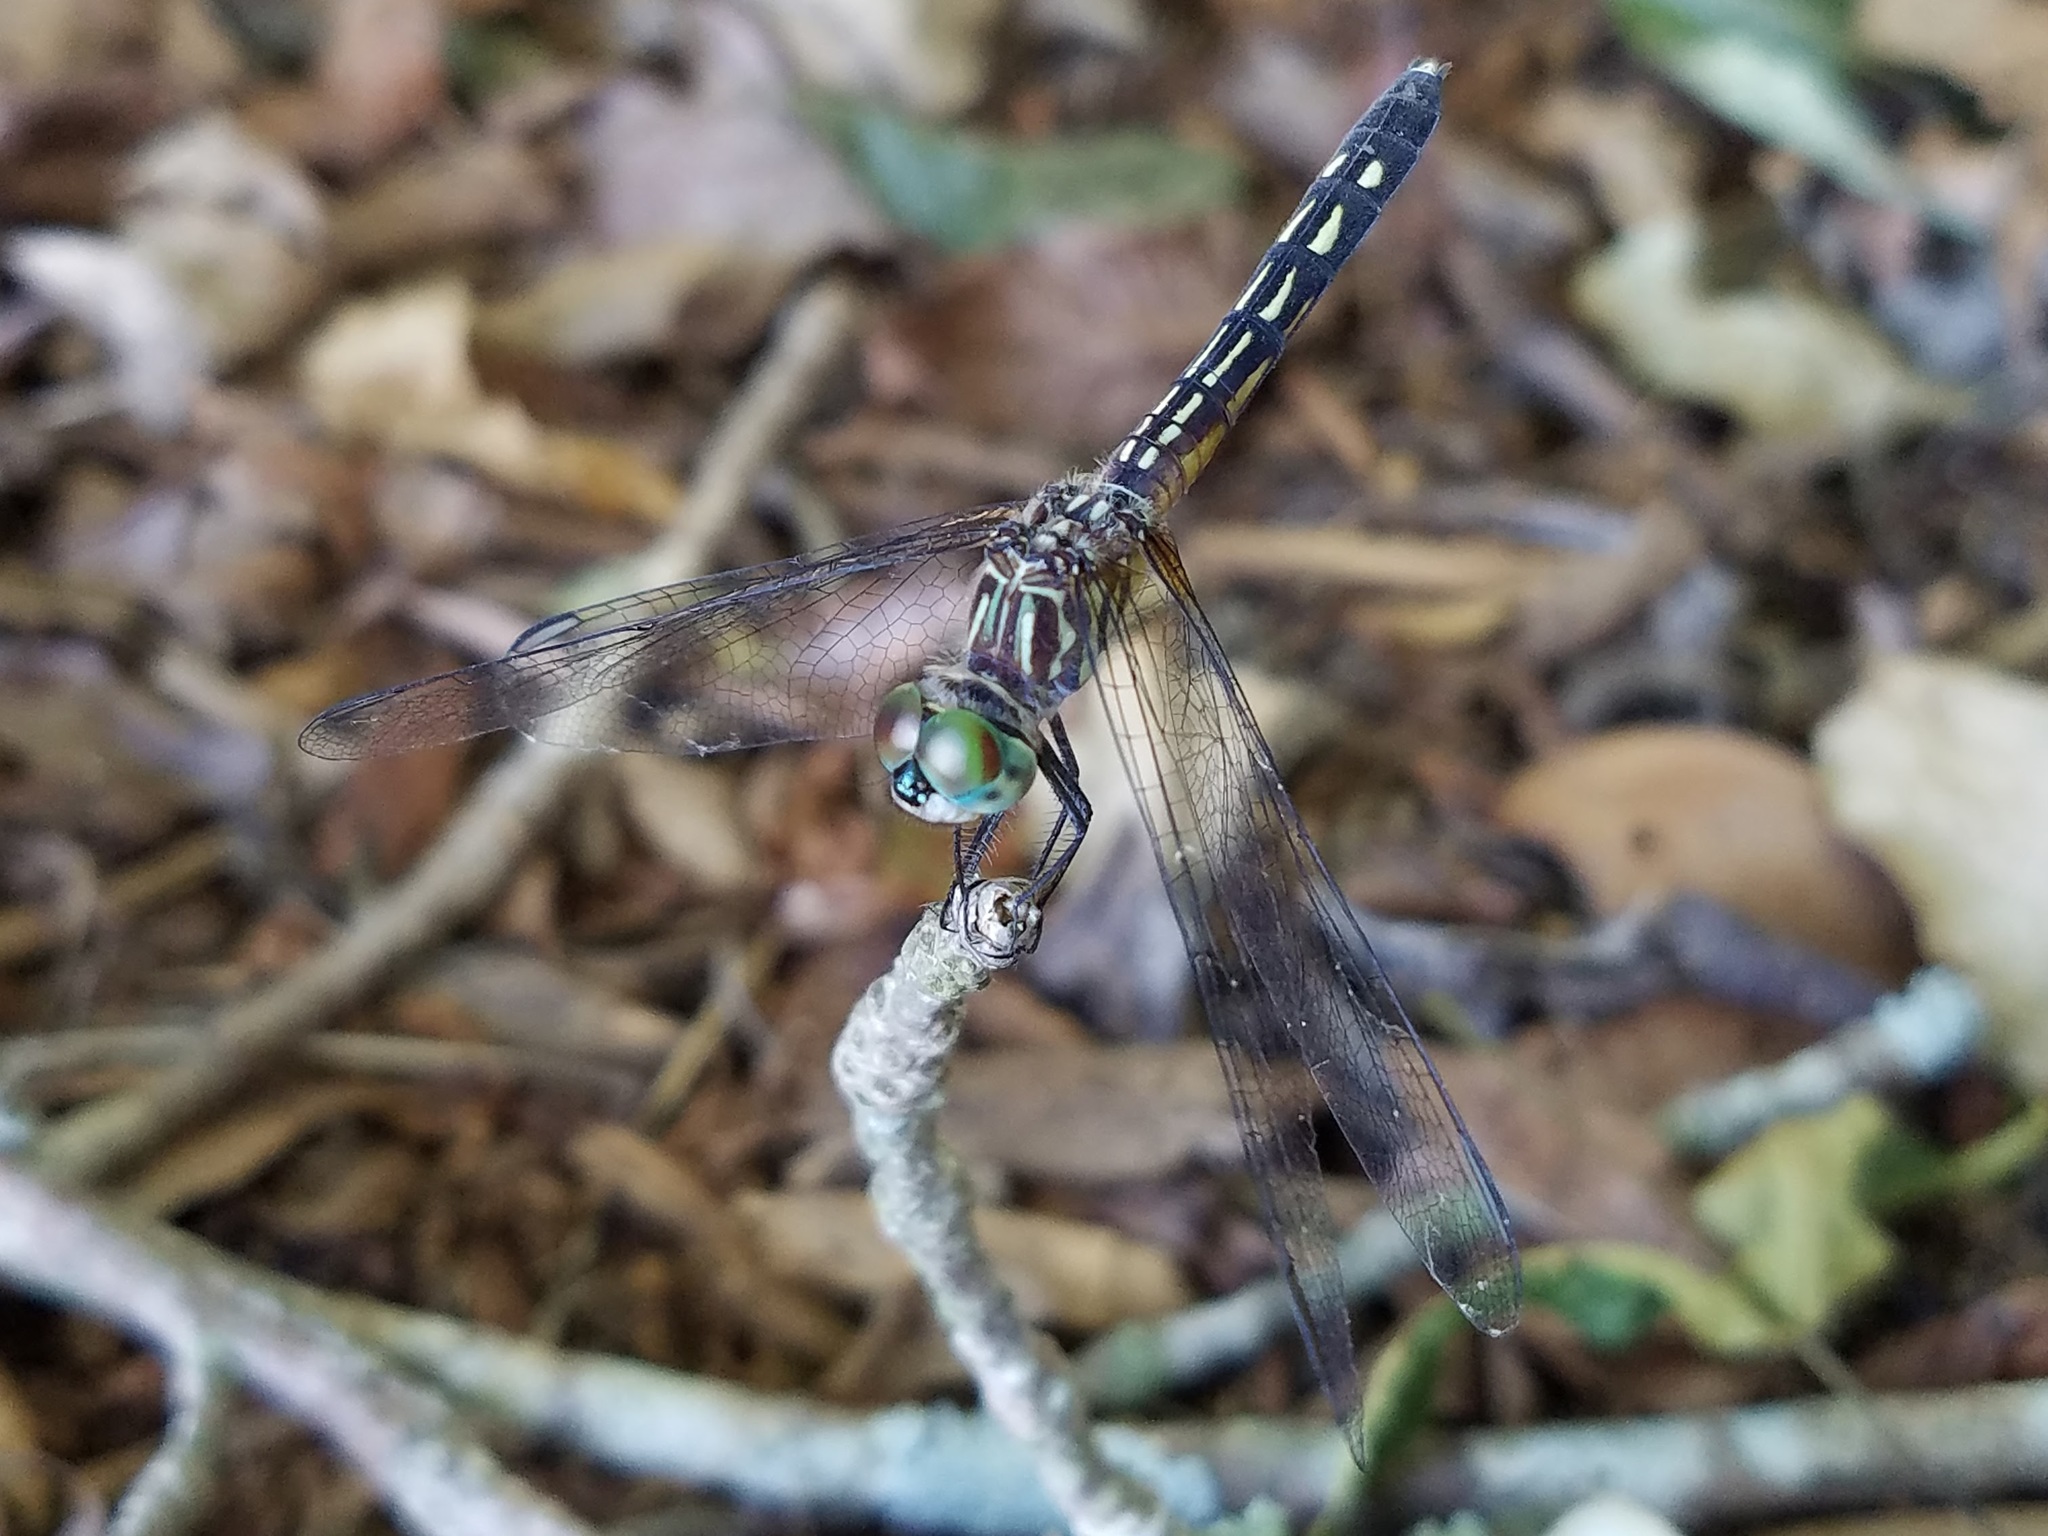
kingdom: Animalia
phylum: Arthropoda
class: Insecta
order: Odonata
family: Libellulidae
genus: Pachydiplax
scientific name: Pachydiplax longipennis
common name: Blue dasher
